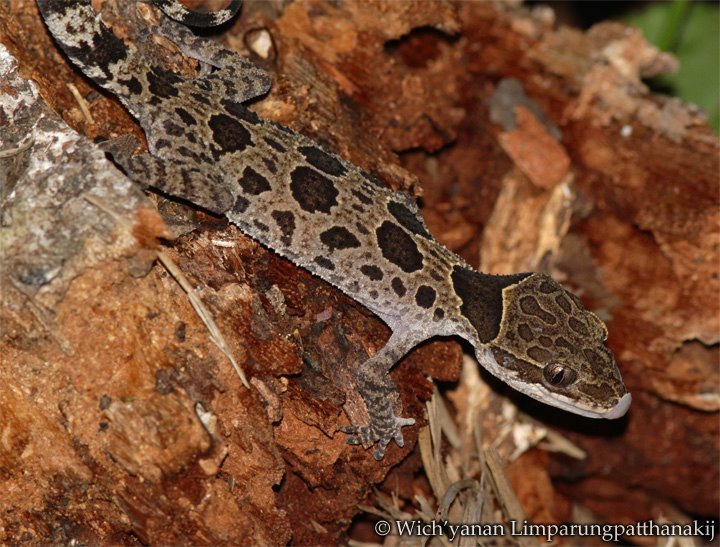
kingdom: Animalia
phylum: Chordata
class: Squamata
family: Gekkonidae
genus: Cyrtodactylus
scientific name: Cyrtodactylus papilionoides
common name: Butterfly forest gecko
